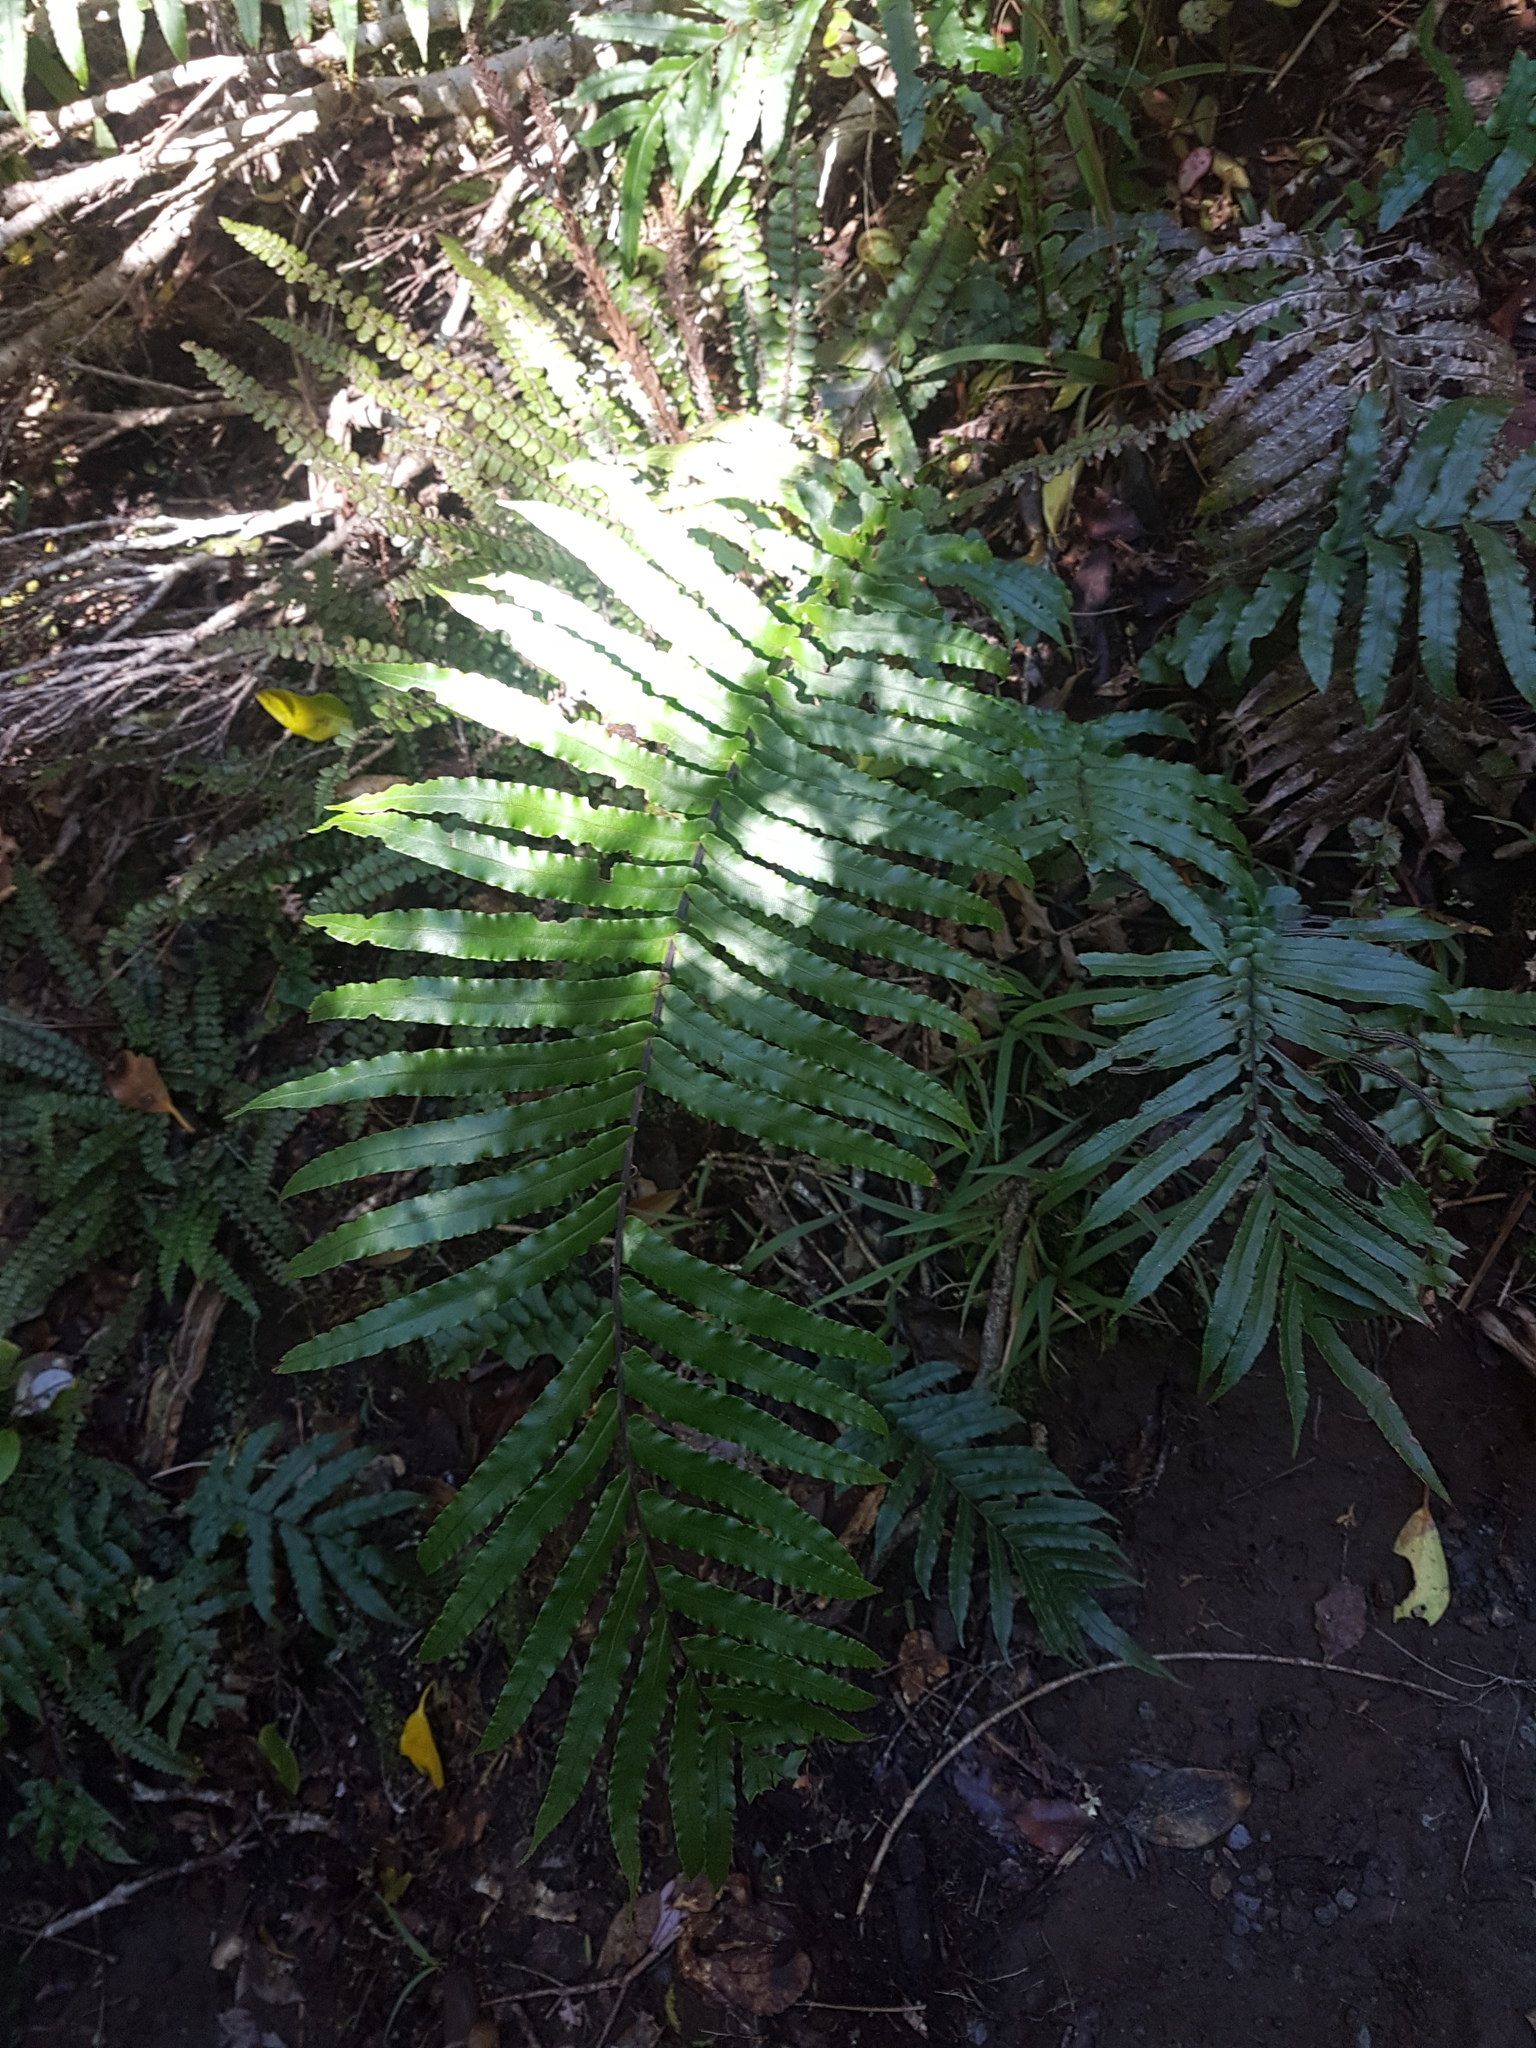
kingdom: Plantae
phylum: Tracheophyta
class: Polypodiopsida
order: Polypodiales
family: Blechnaceae
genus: Parablechnum
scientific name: Parablechnum novae-zelandiae
